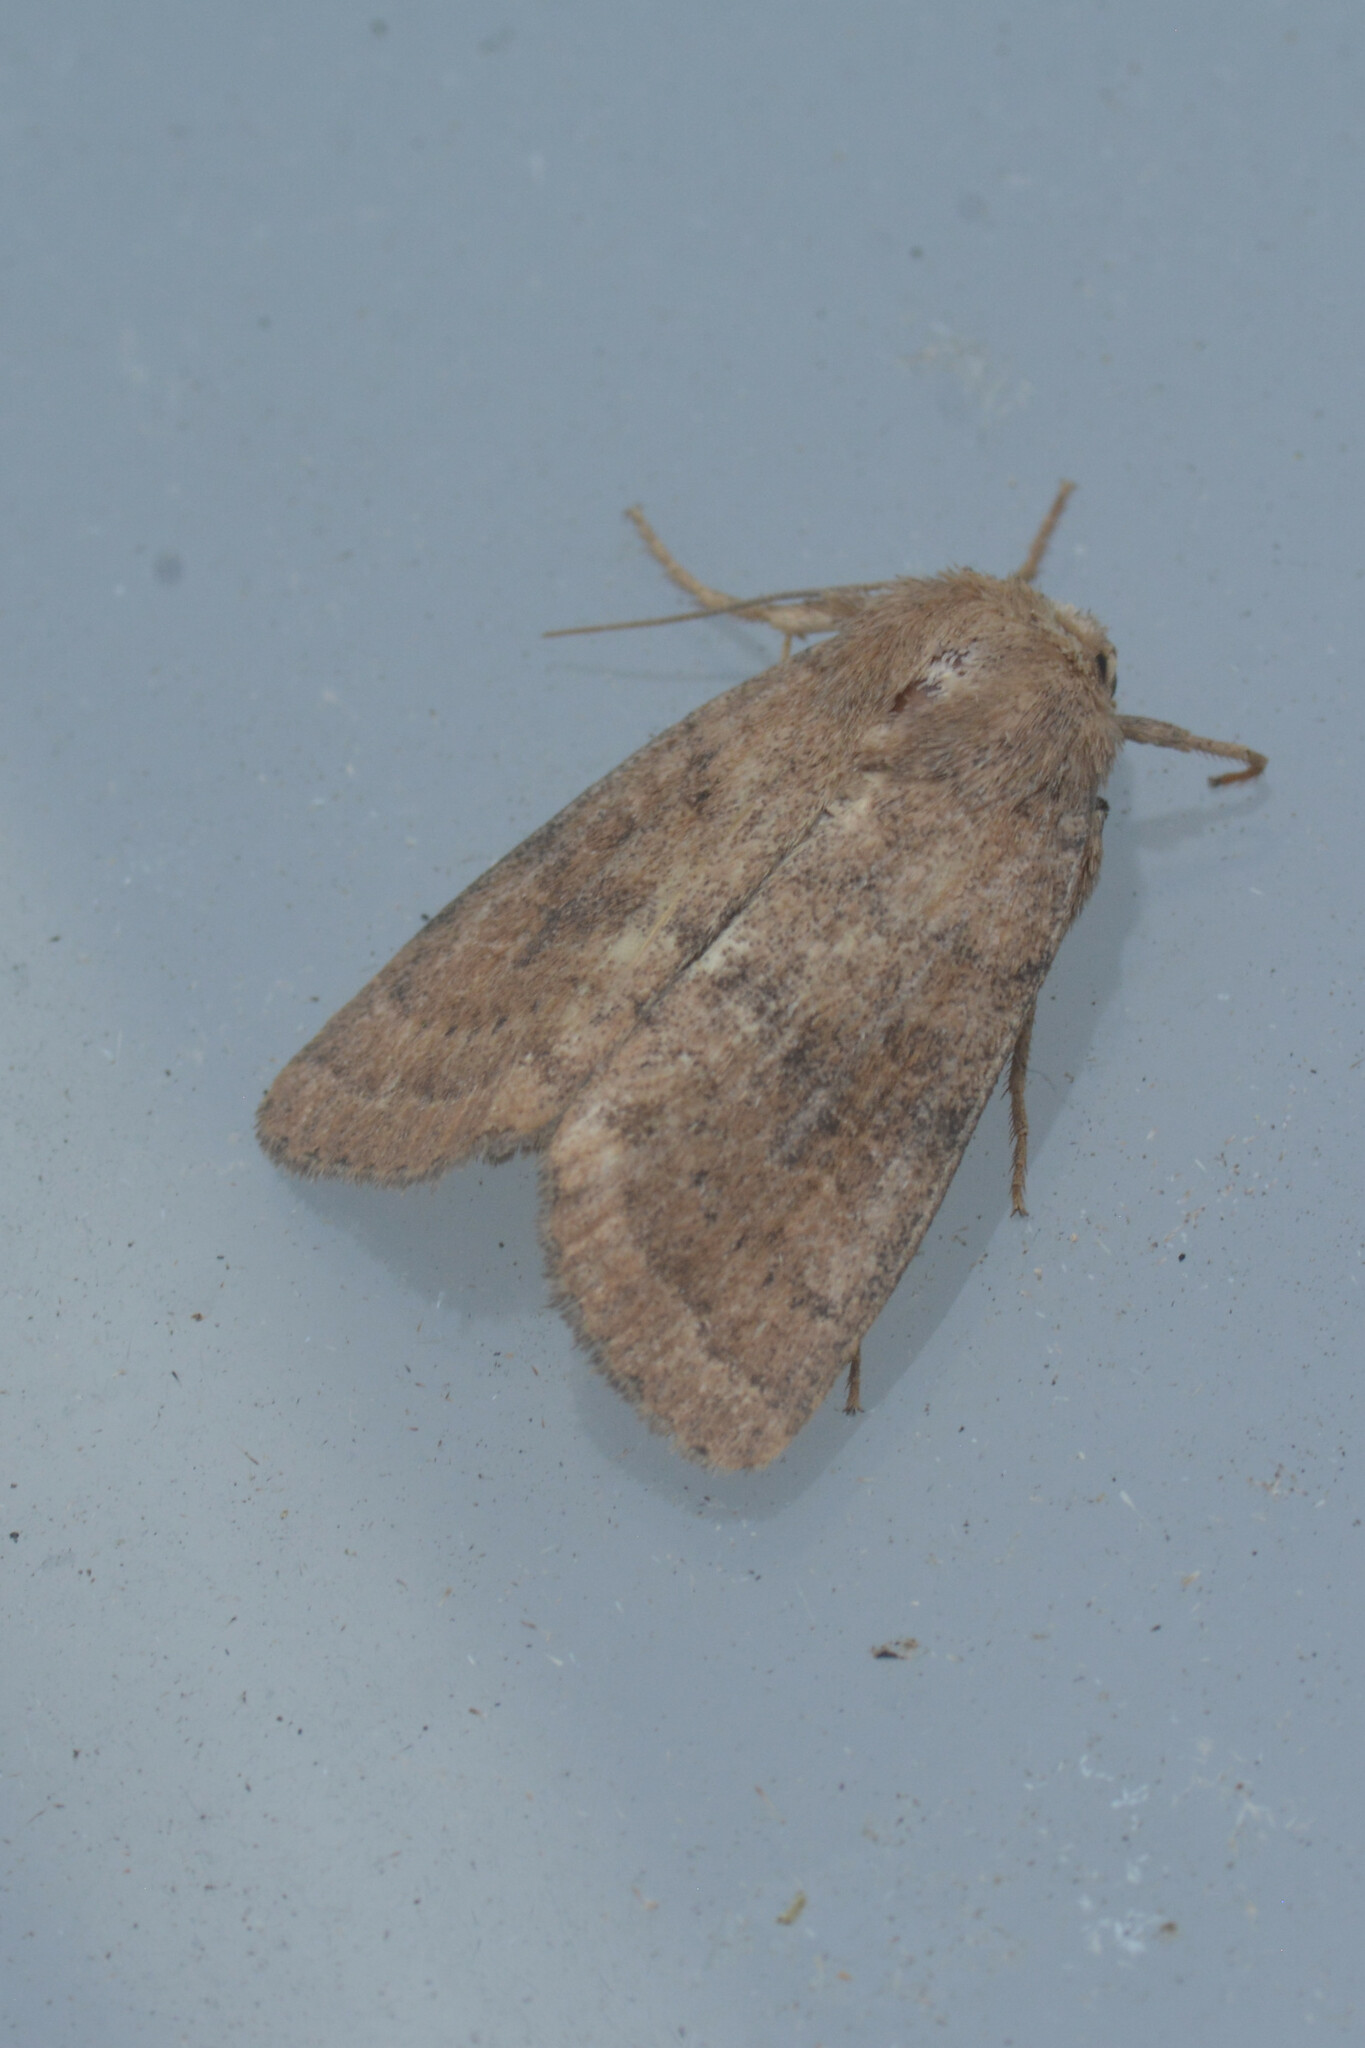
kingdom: Animalia
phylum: Arthropoda
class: Insecta
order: Lepidoptera
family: Noctuidae
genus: Hoplodrina
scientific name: Hoplodrina octogenaria
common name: Uncertain
